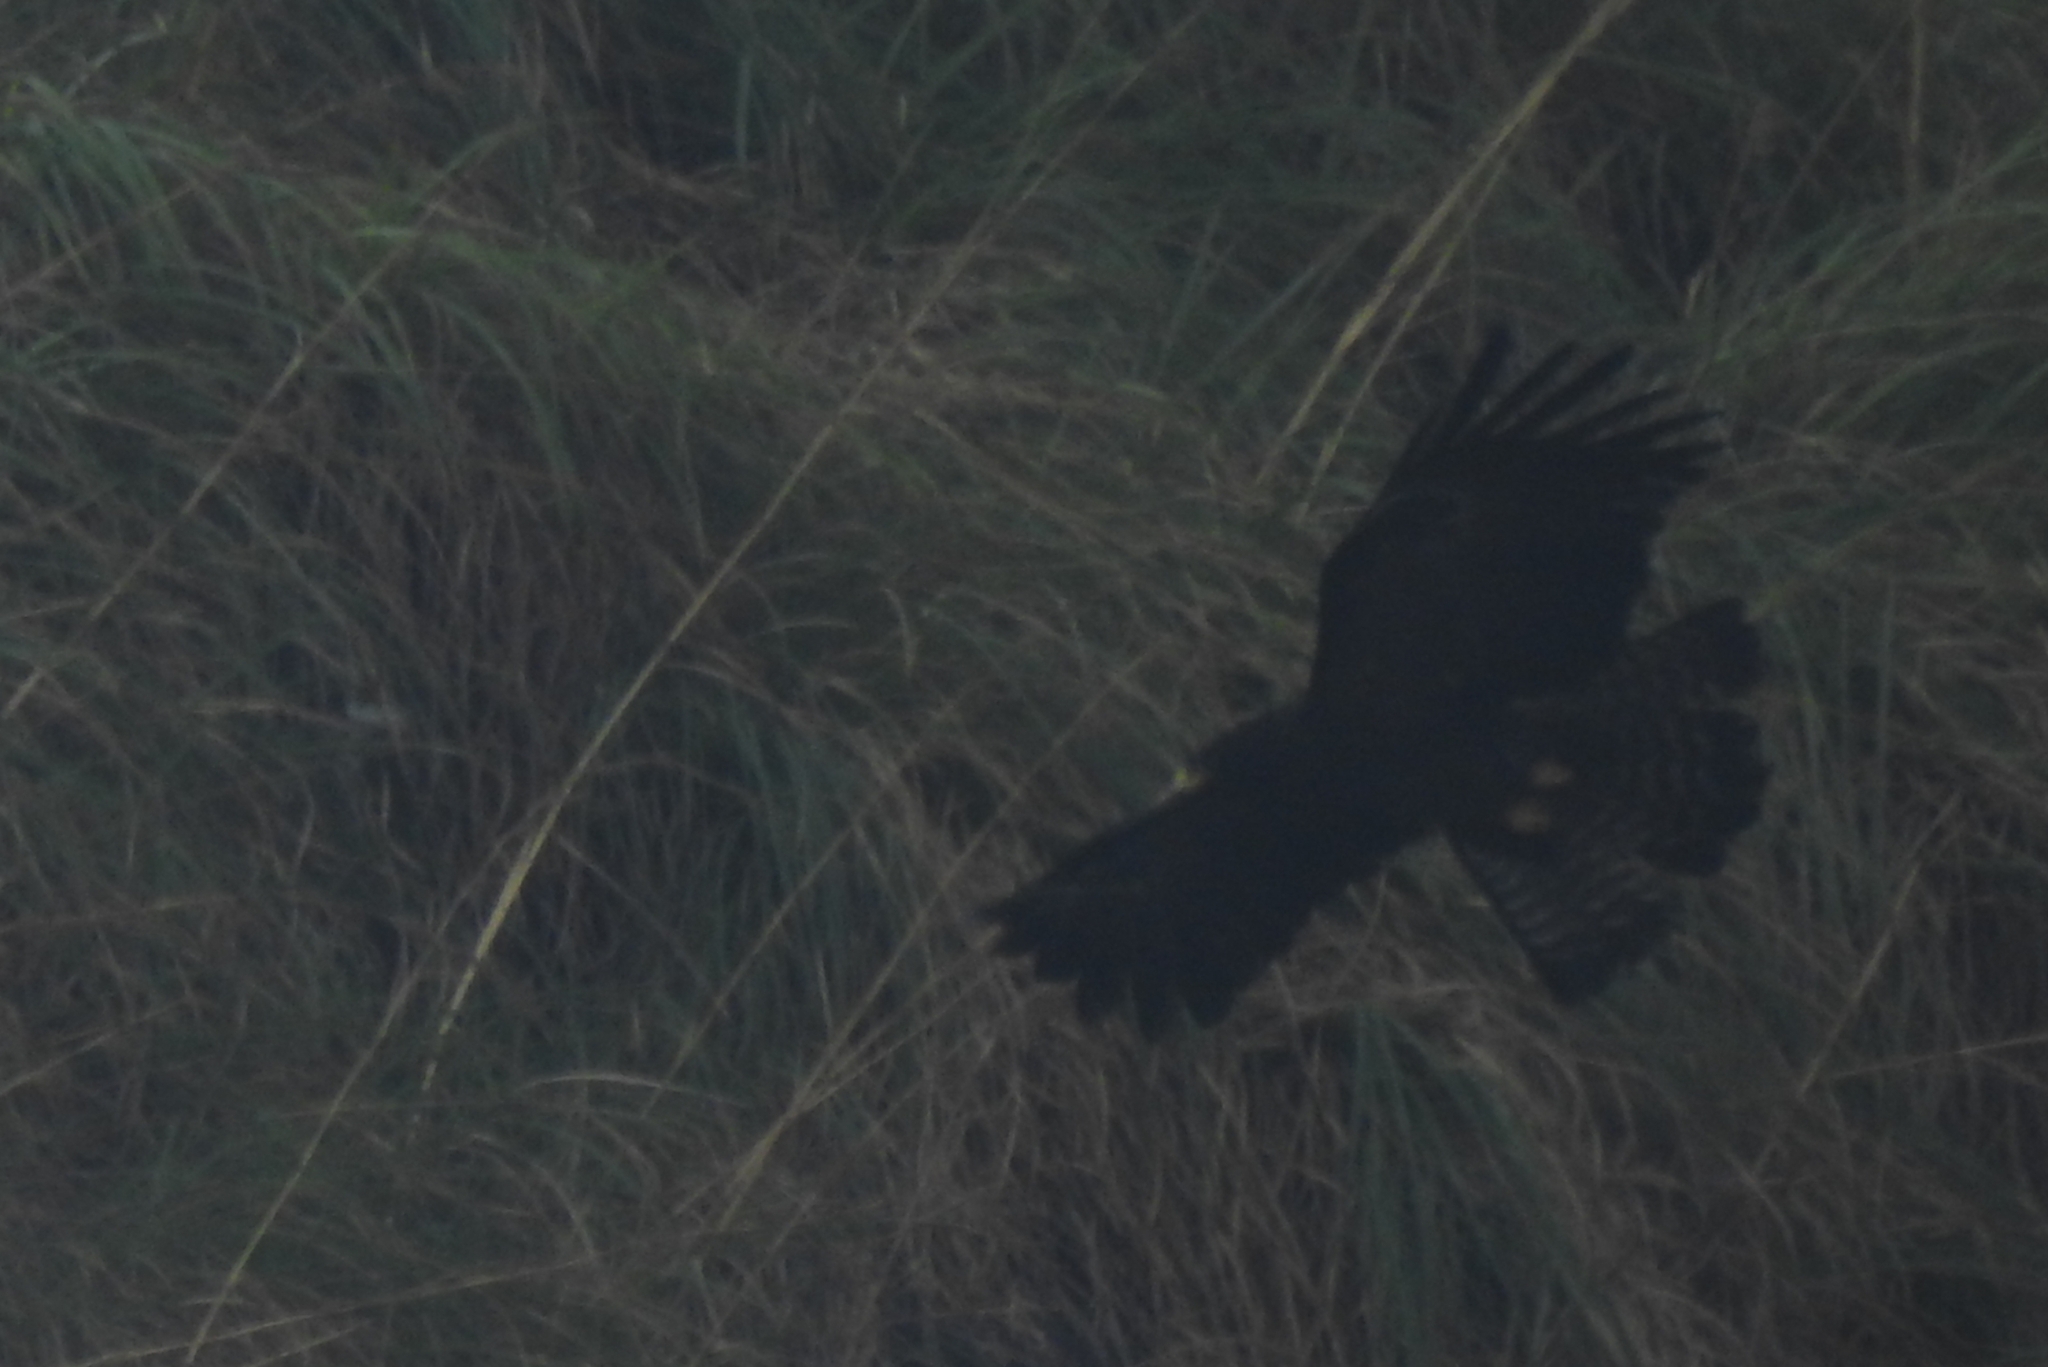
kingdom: Animalia
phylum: Chordata
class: Aves
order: Accipitriformes
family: Accipitridae
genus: Ictinaetus
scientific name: Ictinaetus malayensis
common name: Black eagle
